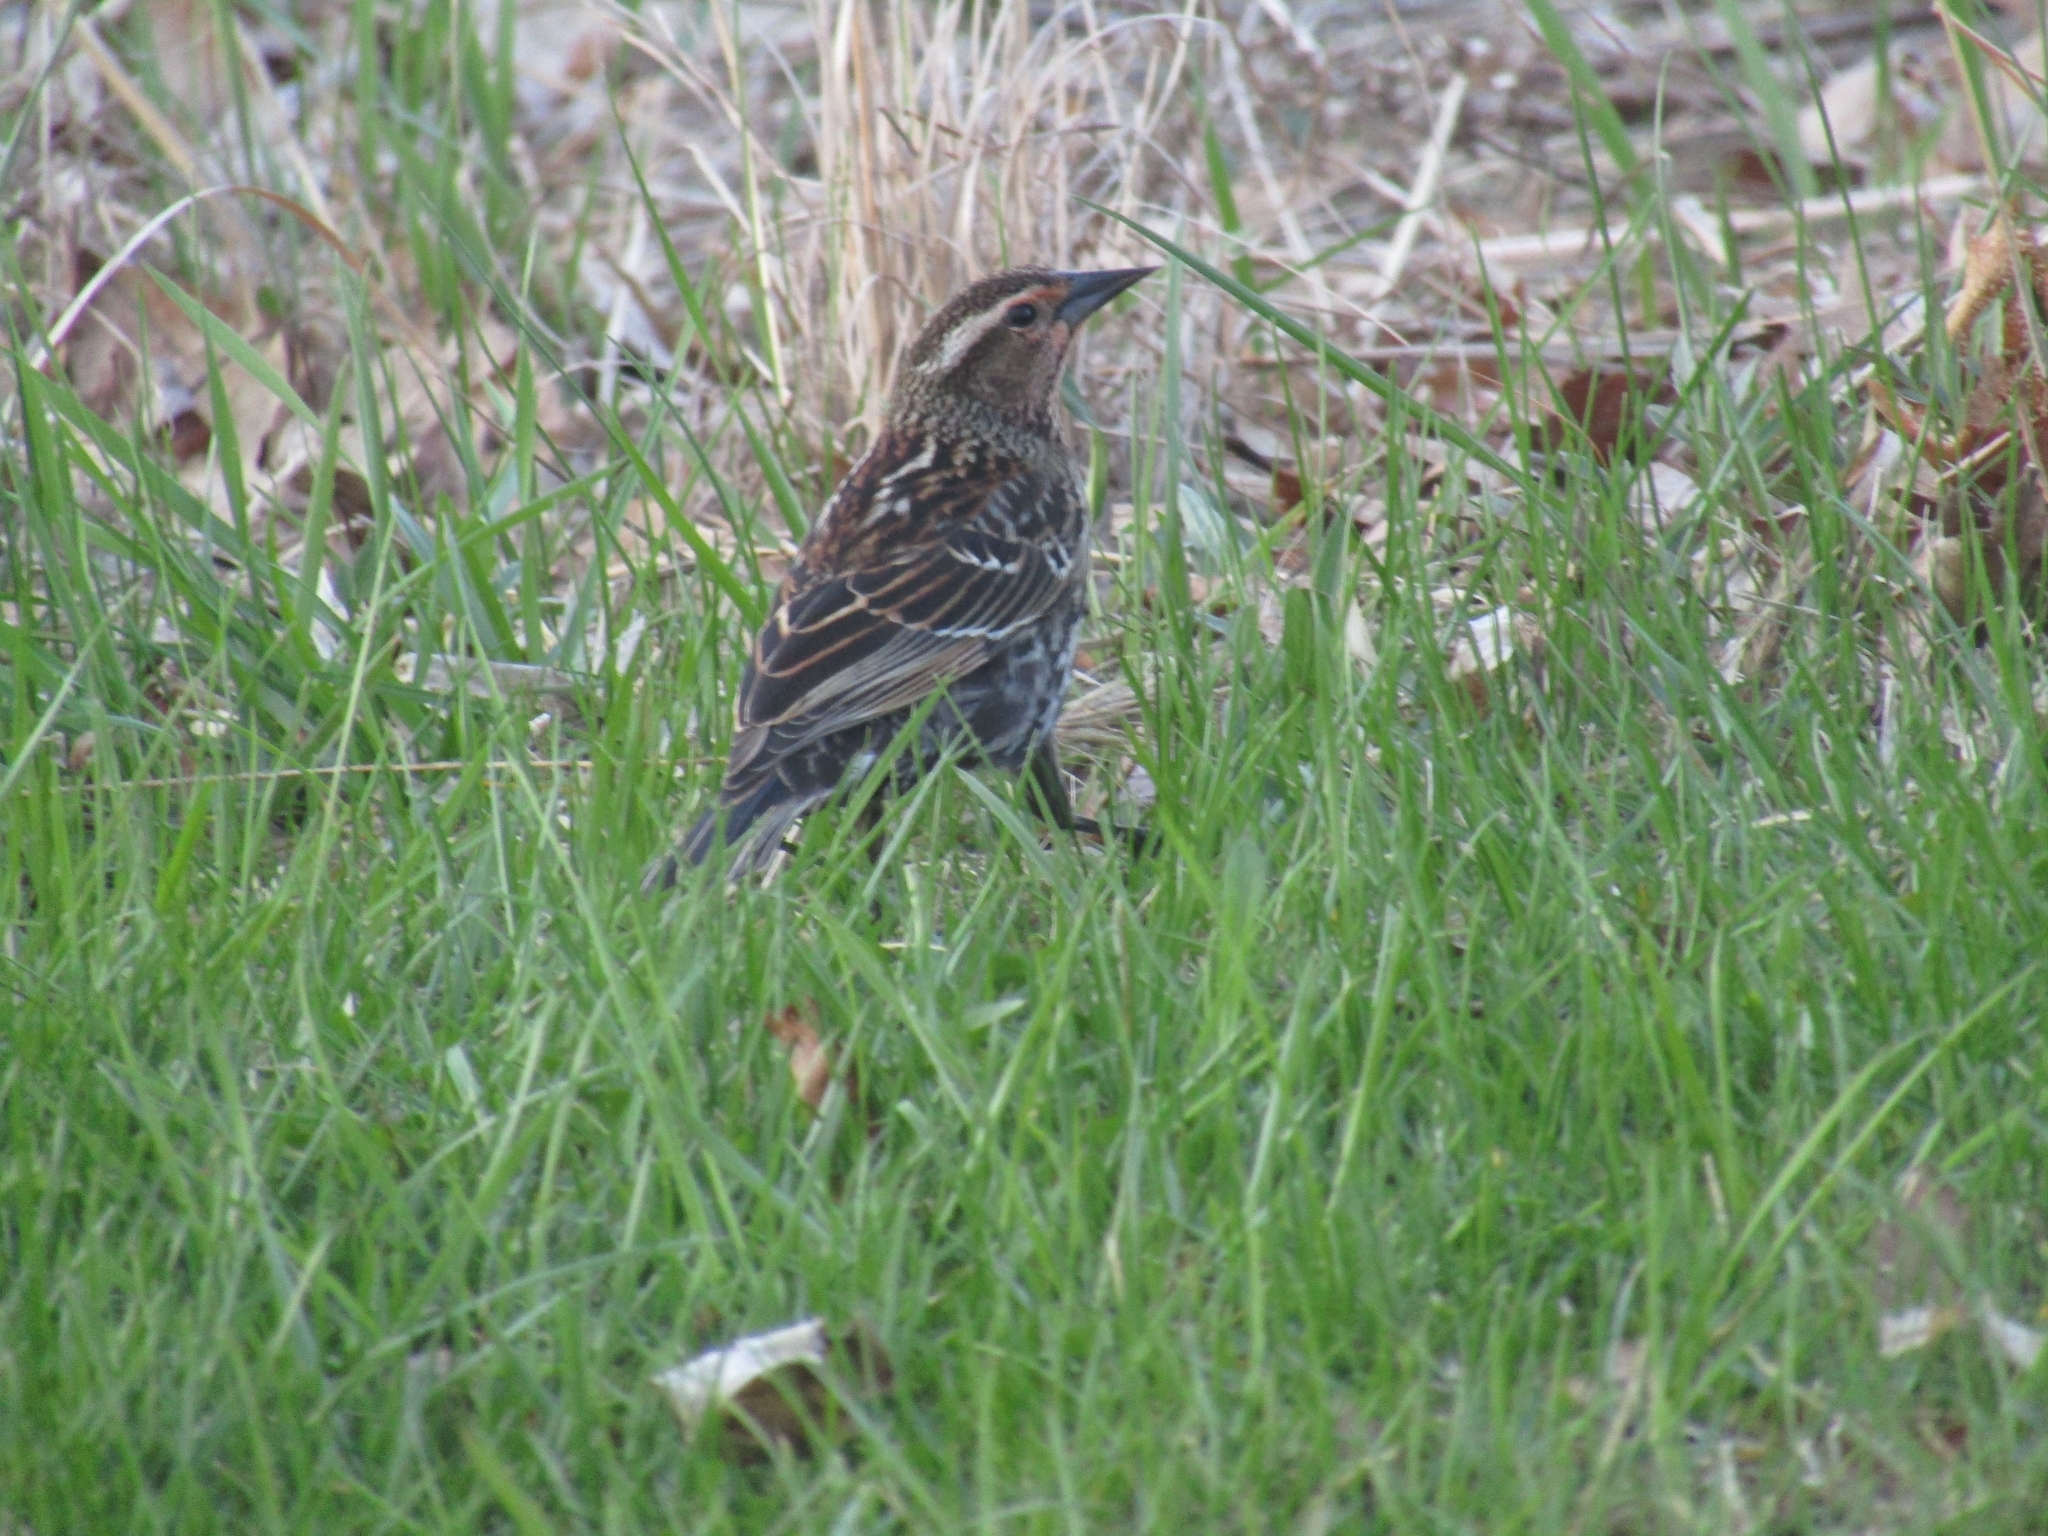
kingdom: Animalia
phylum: Chordata
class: Aves
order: Passeriformes
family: Icteridae
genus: Agelaius
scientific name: Agelaius phoeniceus
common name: Red-winged blackbird
